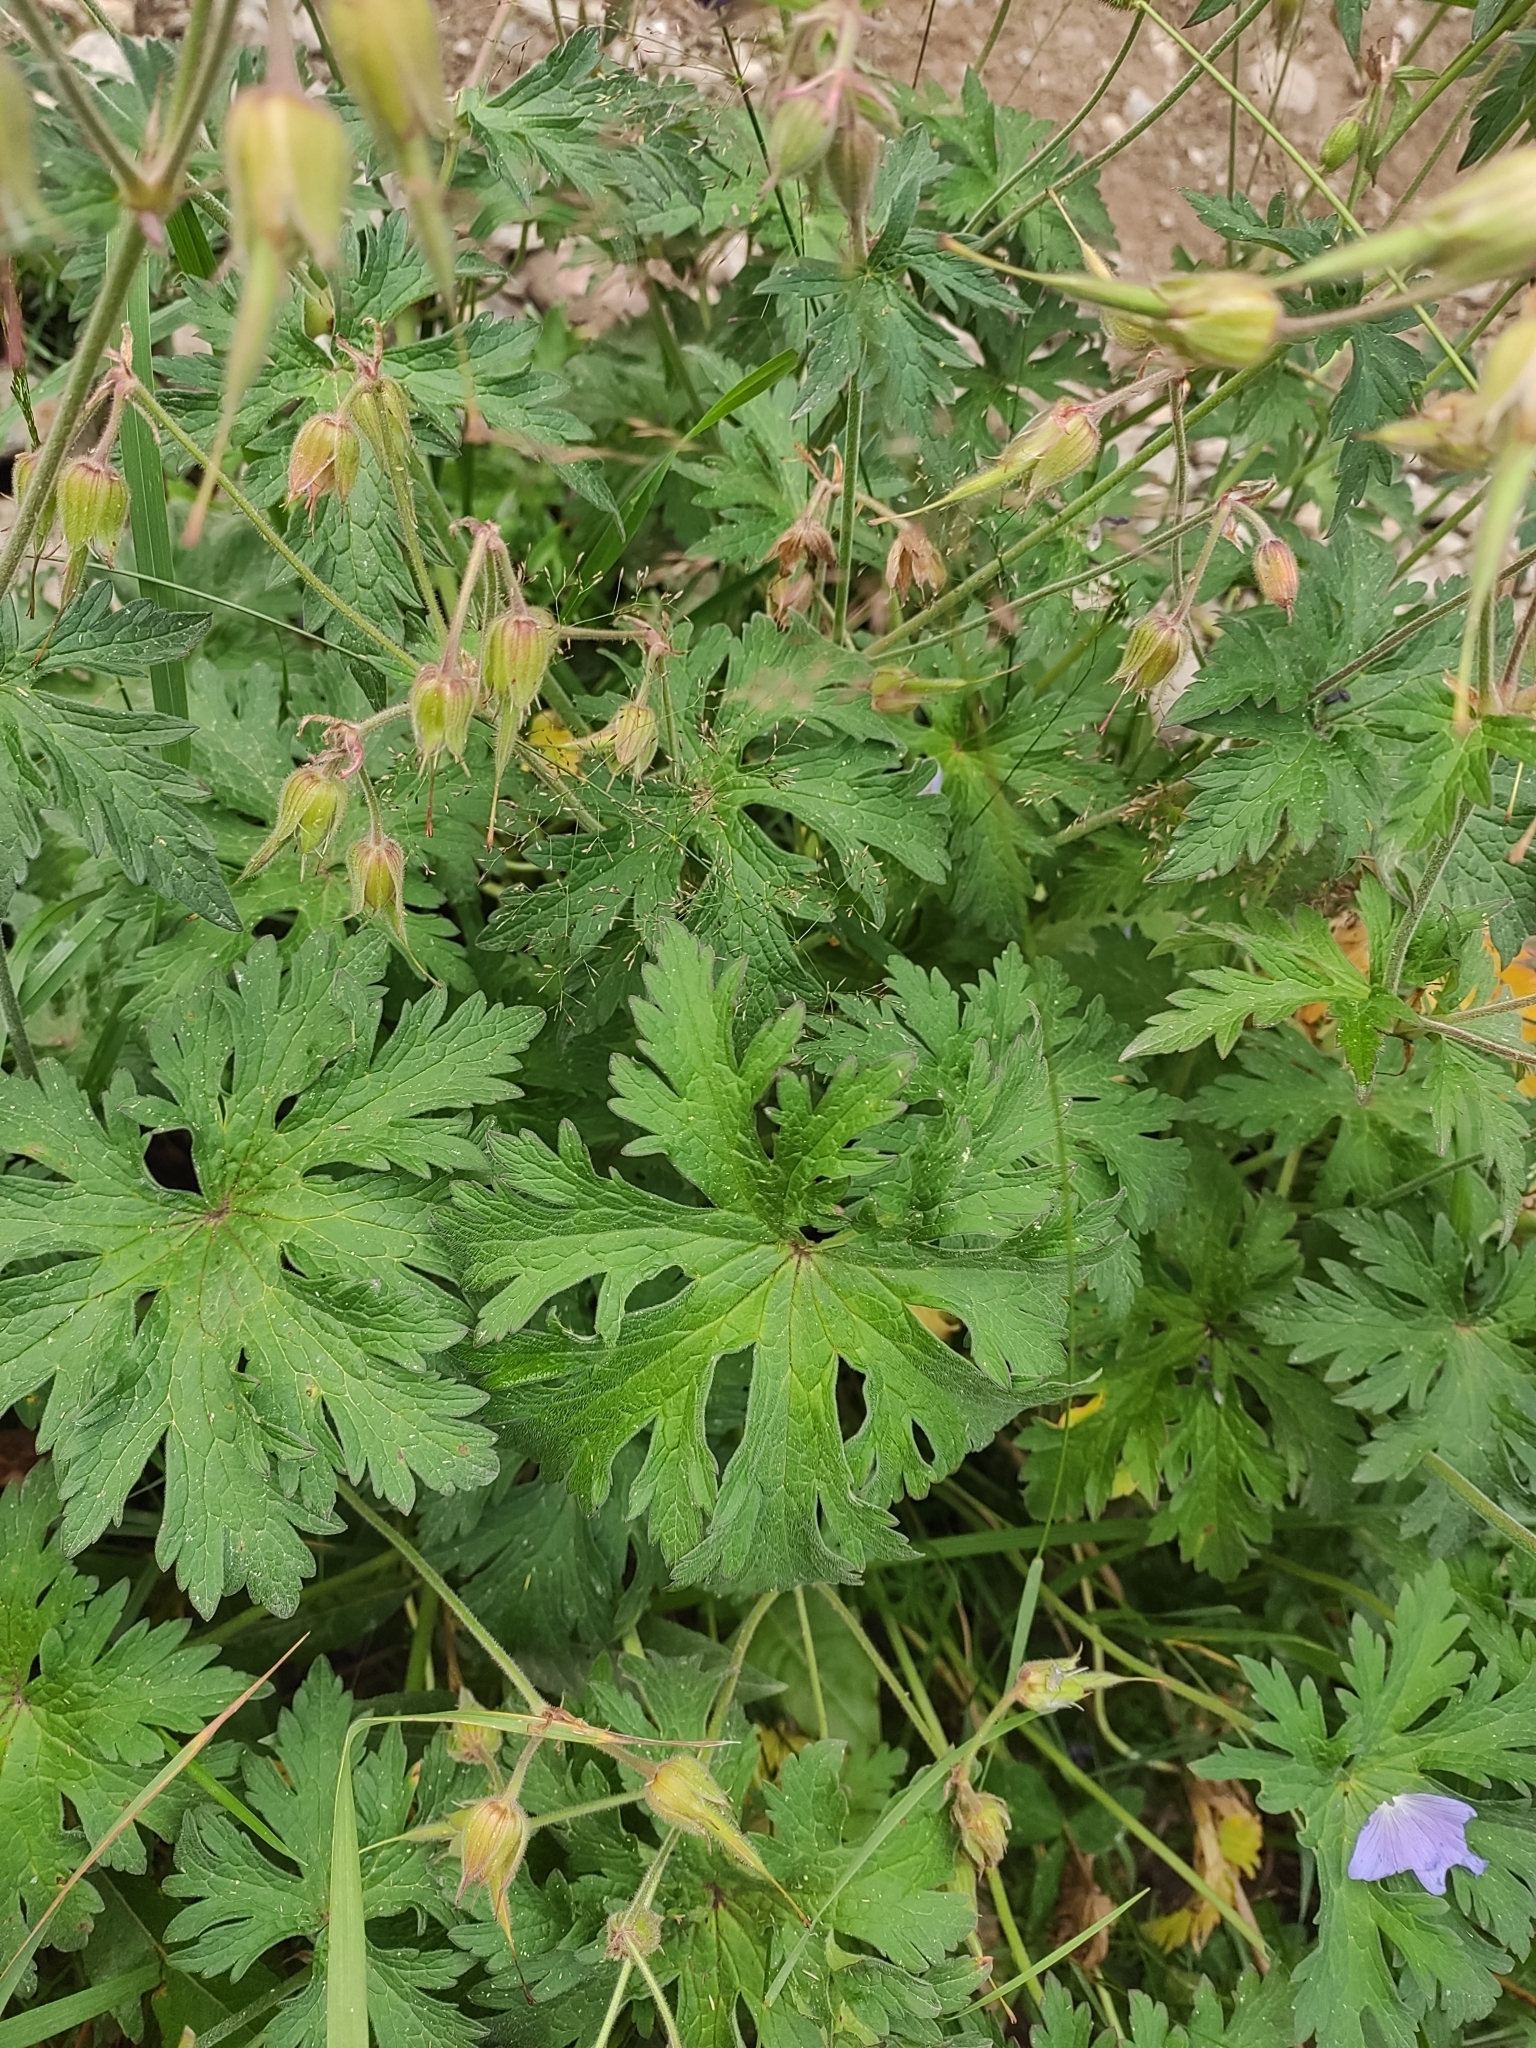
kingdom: Plantae
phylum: Tracheophyta
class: Magnoliopsida
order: Geraniales
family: Geraniaceae
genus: Geranium
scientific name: Geranium pratense
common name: Meadow crane's-bill
